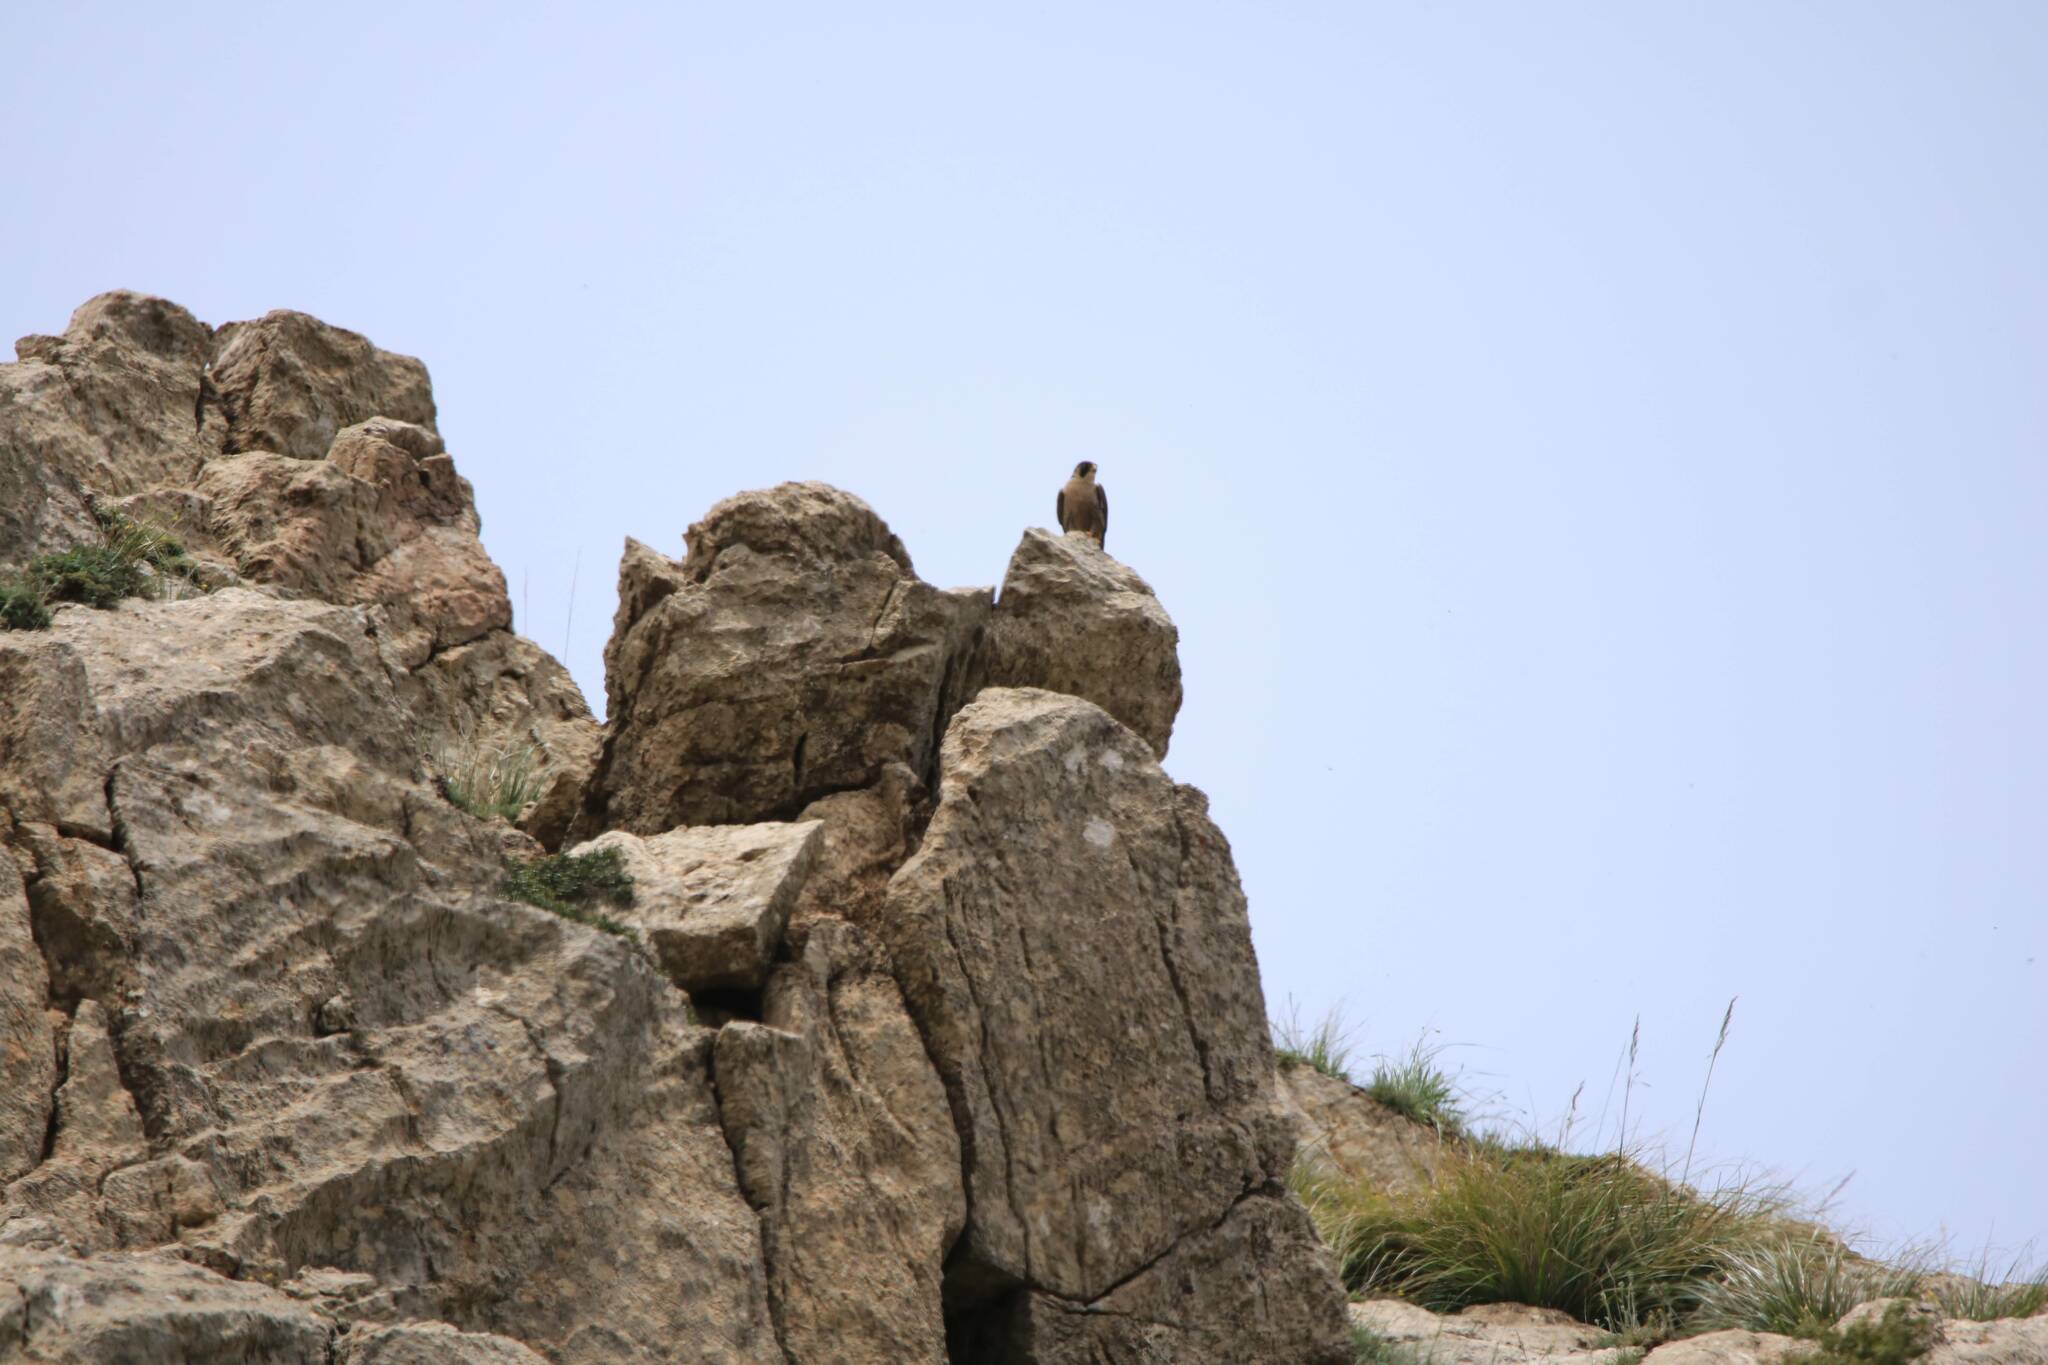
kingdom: Animalia
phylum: Chordata
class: Aves
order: Falconiformes
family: Falconidae
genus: Falco
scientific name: Falco peregrinus
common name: Peregrine falcon
